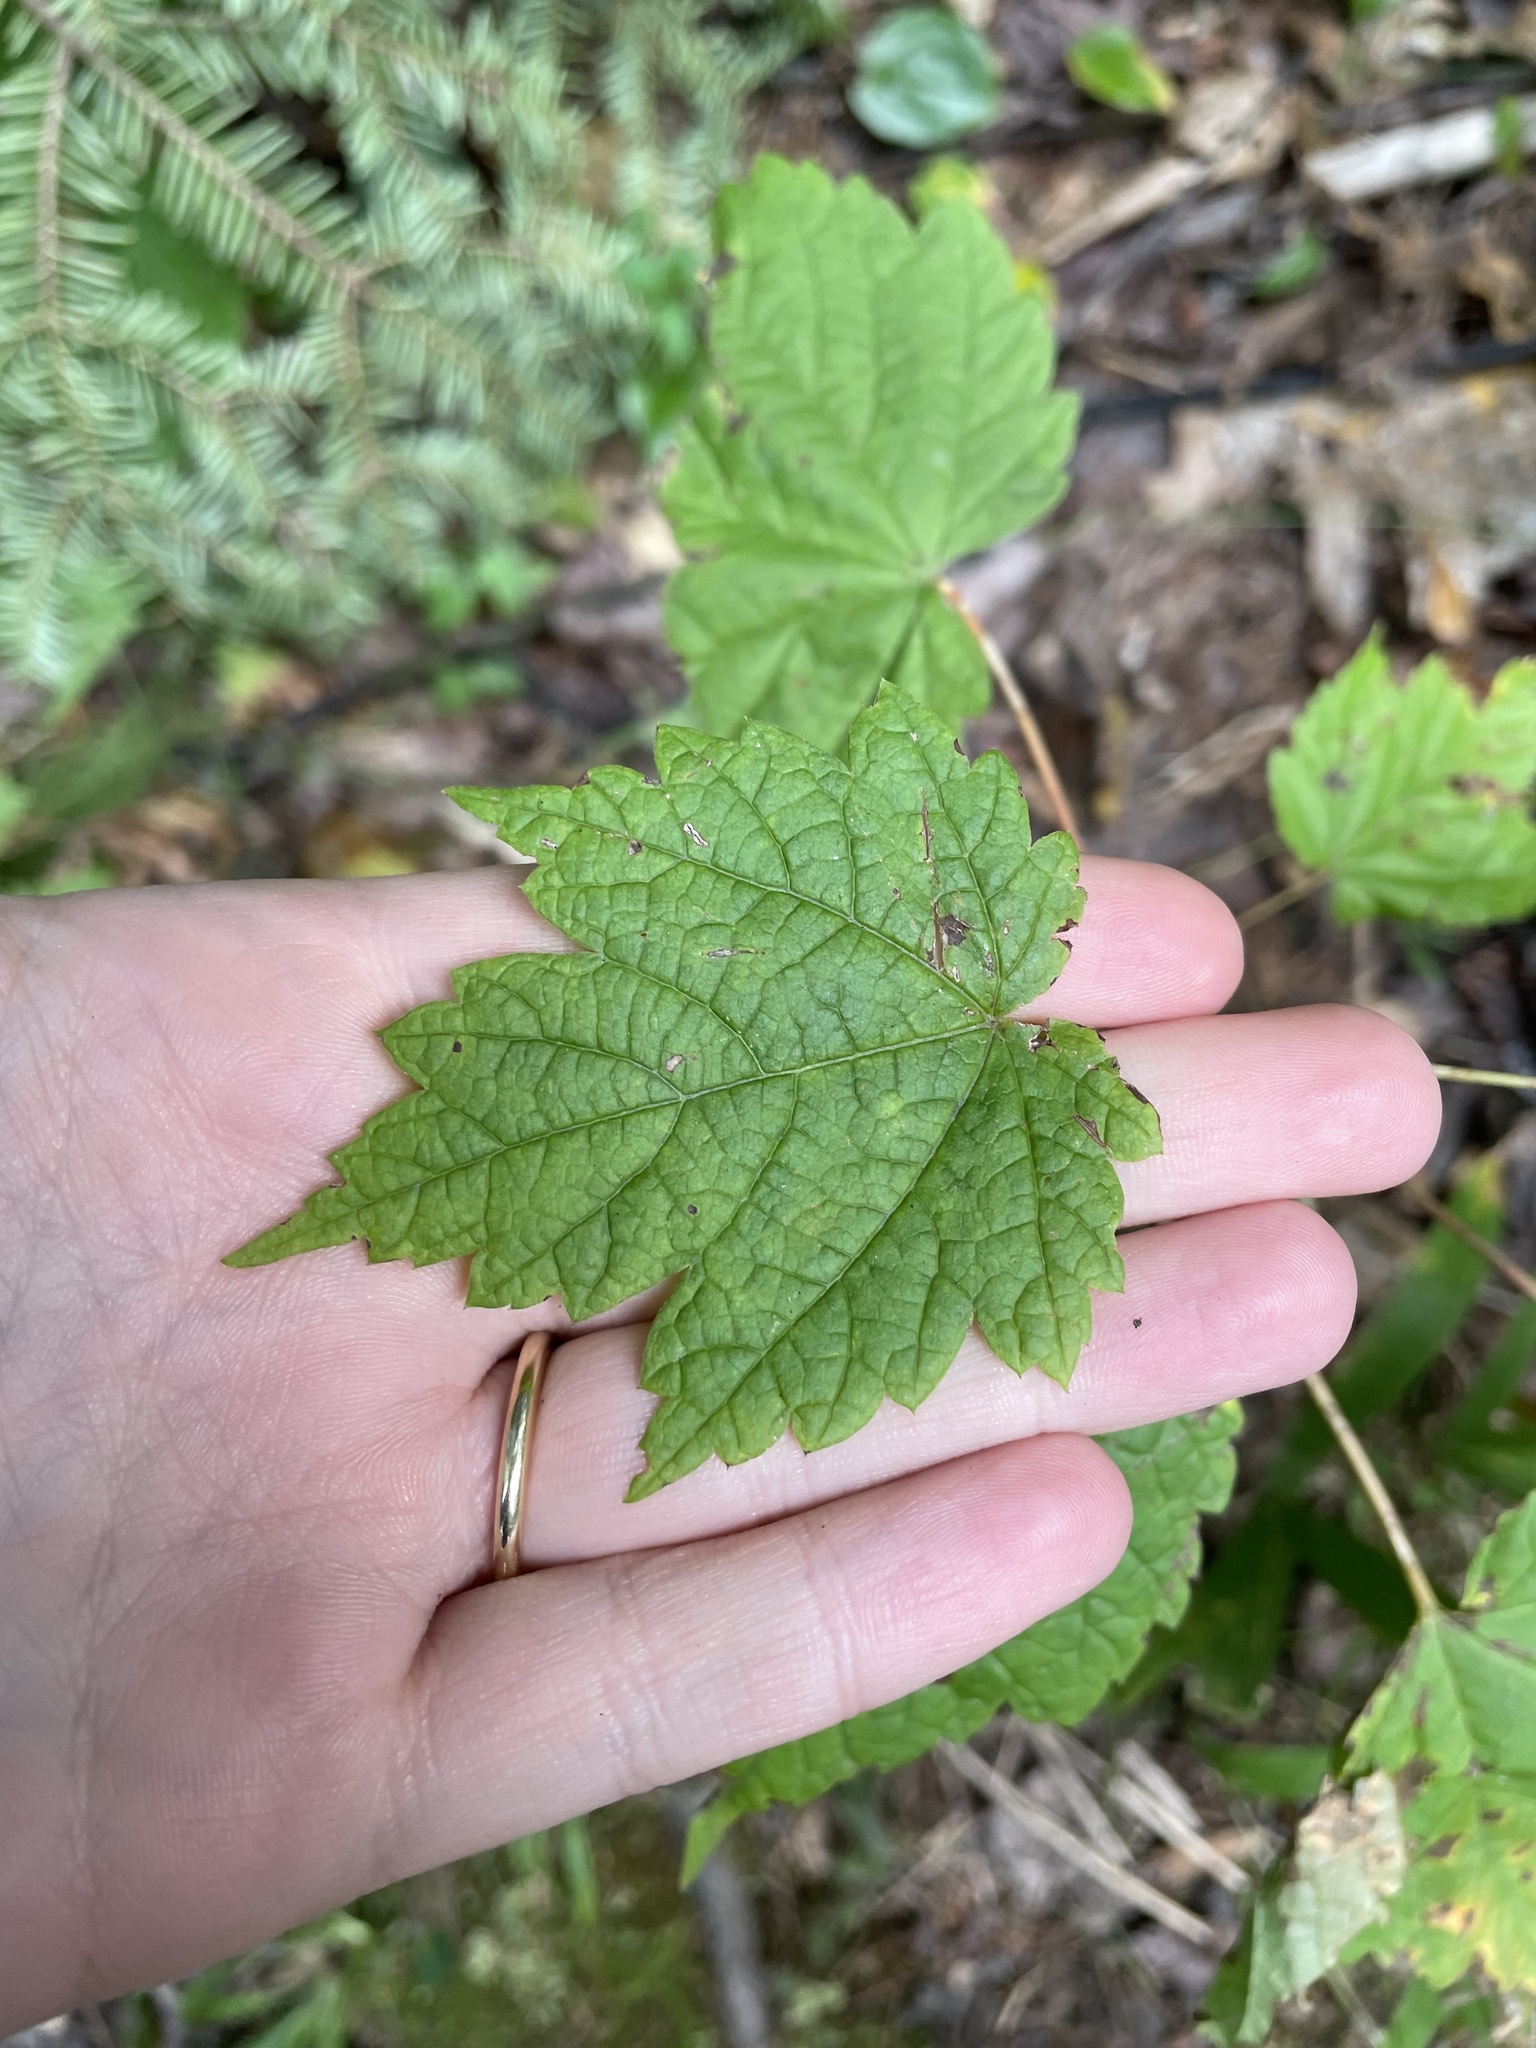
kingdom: Plantae
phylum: Tracheophyta
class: Magnoliopsida
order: Sapindales
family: Sapindaceae
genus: Acer
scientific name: Acer spicatum
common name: Mountain maple
